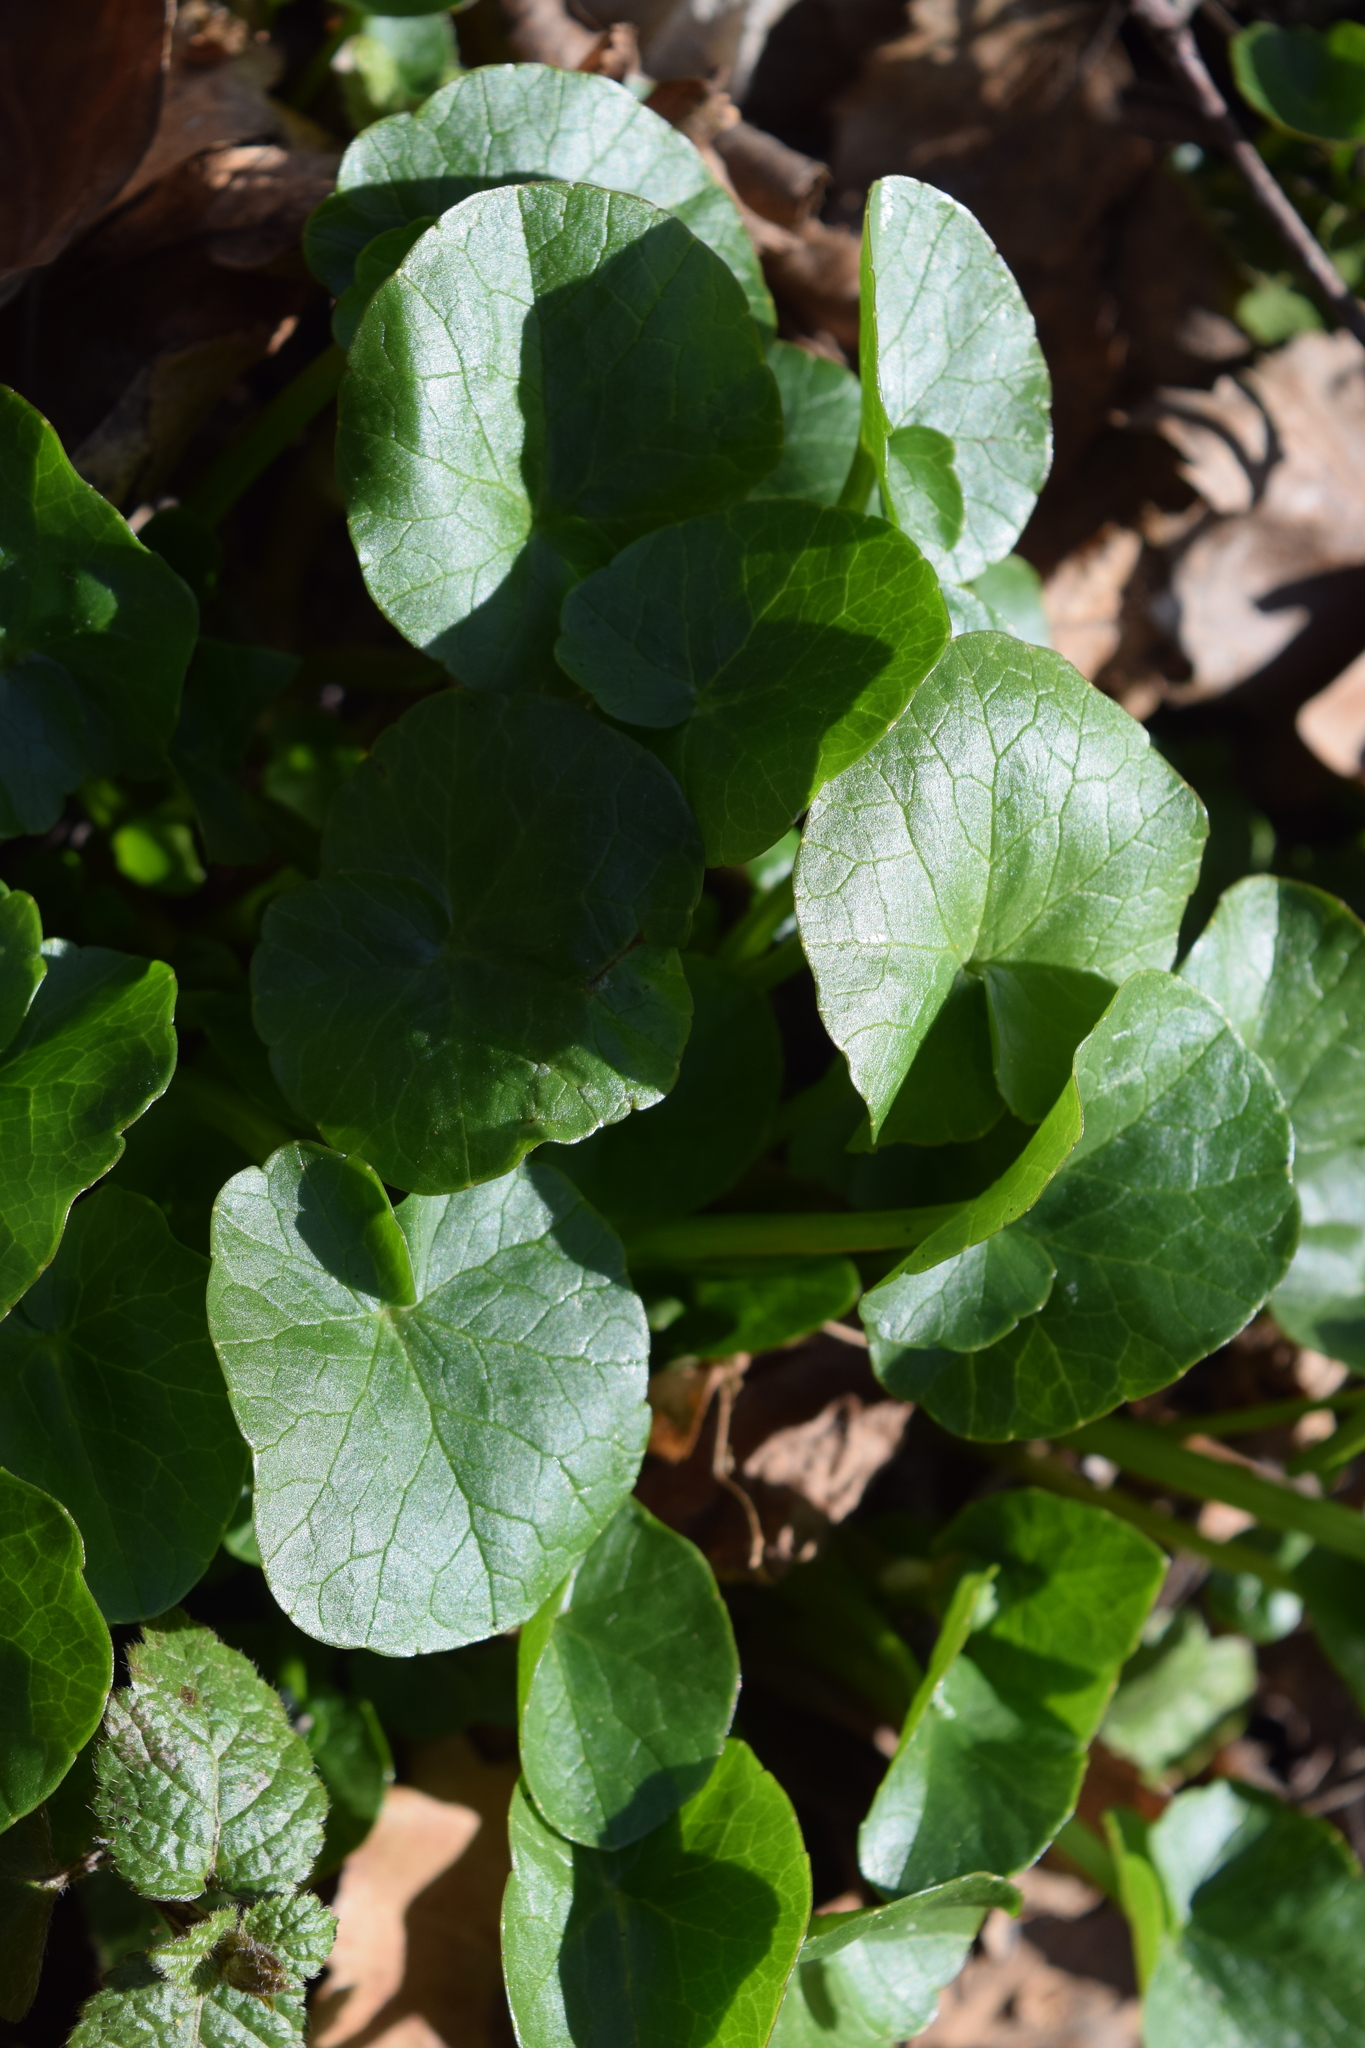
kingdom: Plantae
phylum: Tracheophyta
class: Magnoliopsida
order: Ranunculales
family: Ranunculaceae
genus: Ficaria
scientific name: Ficaria verna
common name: Lesser celandine
